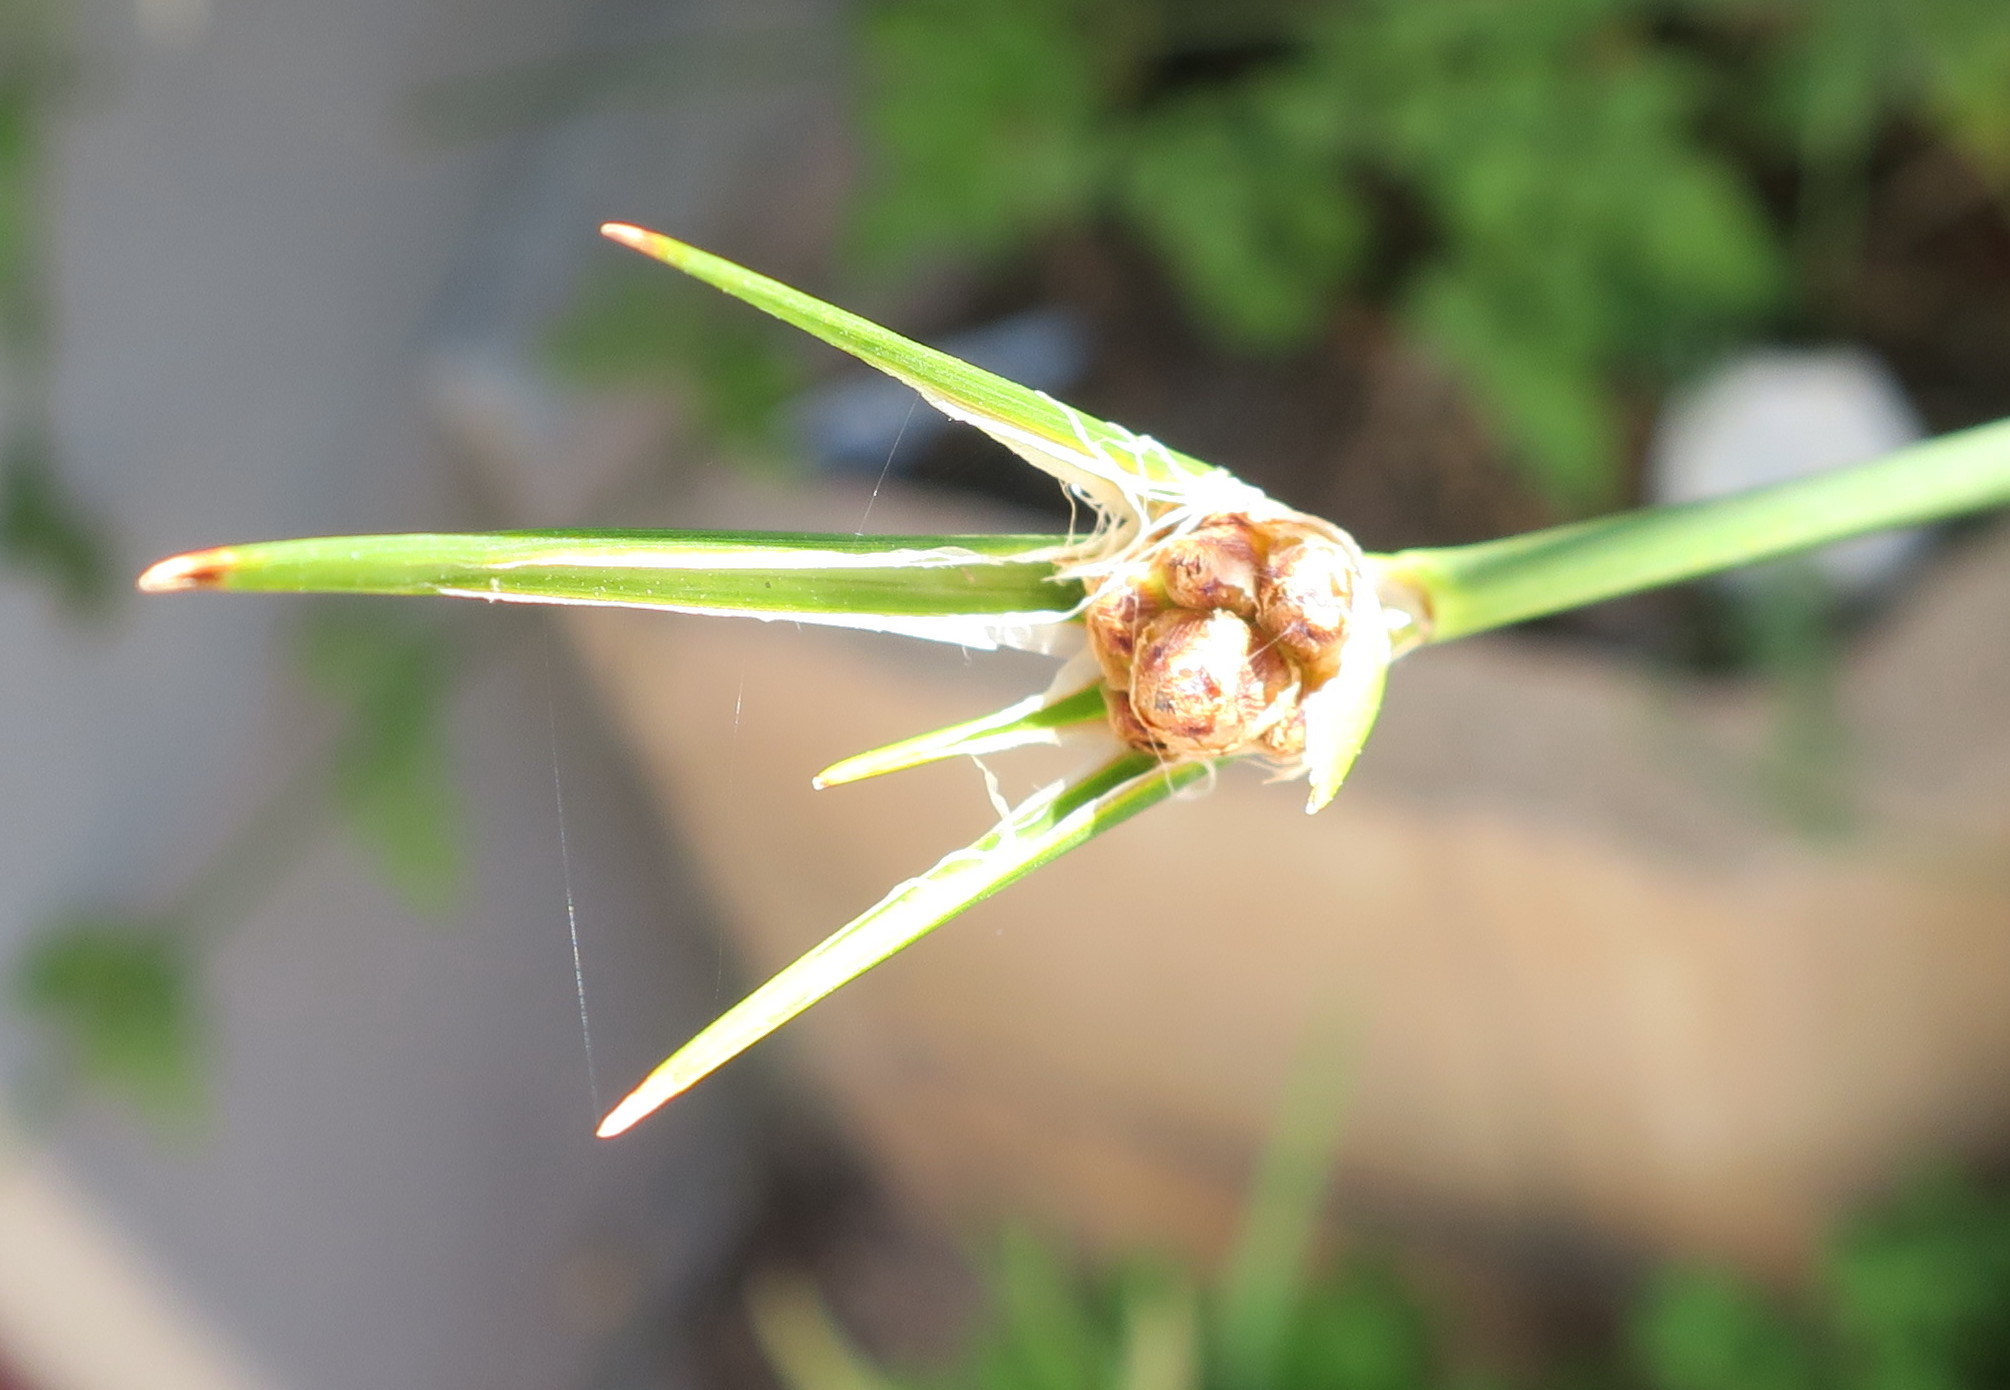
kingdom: Plantae
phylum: Tracheophyta
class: Liliopsida
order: Poales
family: Cyperaceae
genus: Hellmuthia
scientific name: Hellmuthia membranacea
